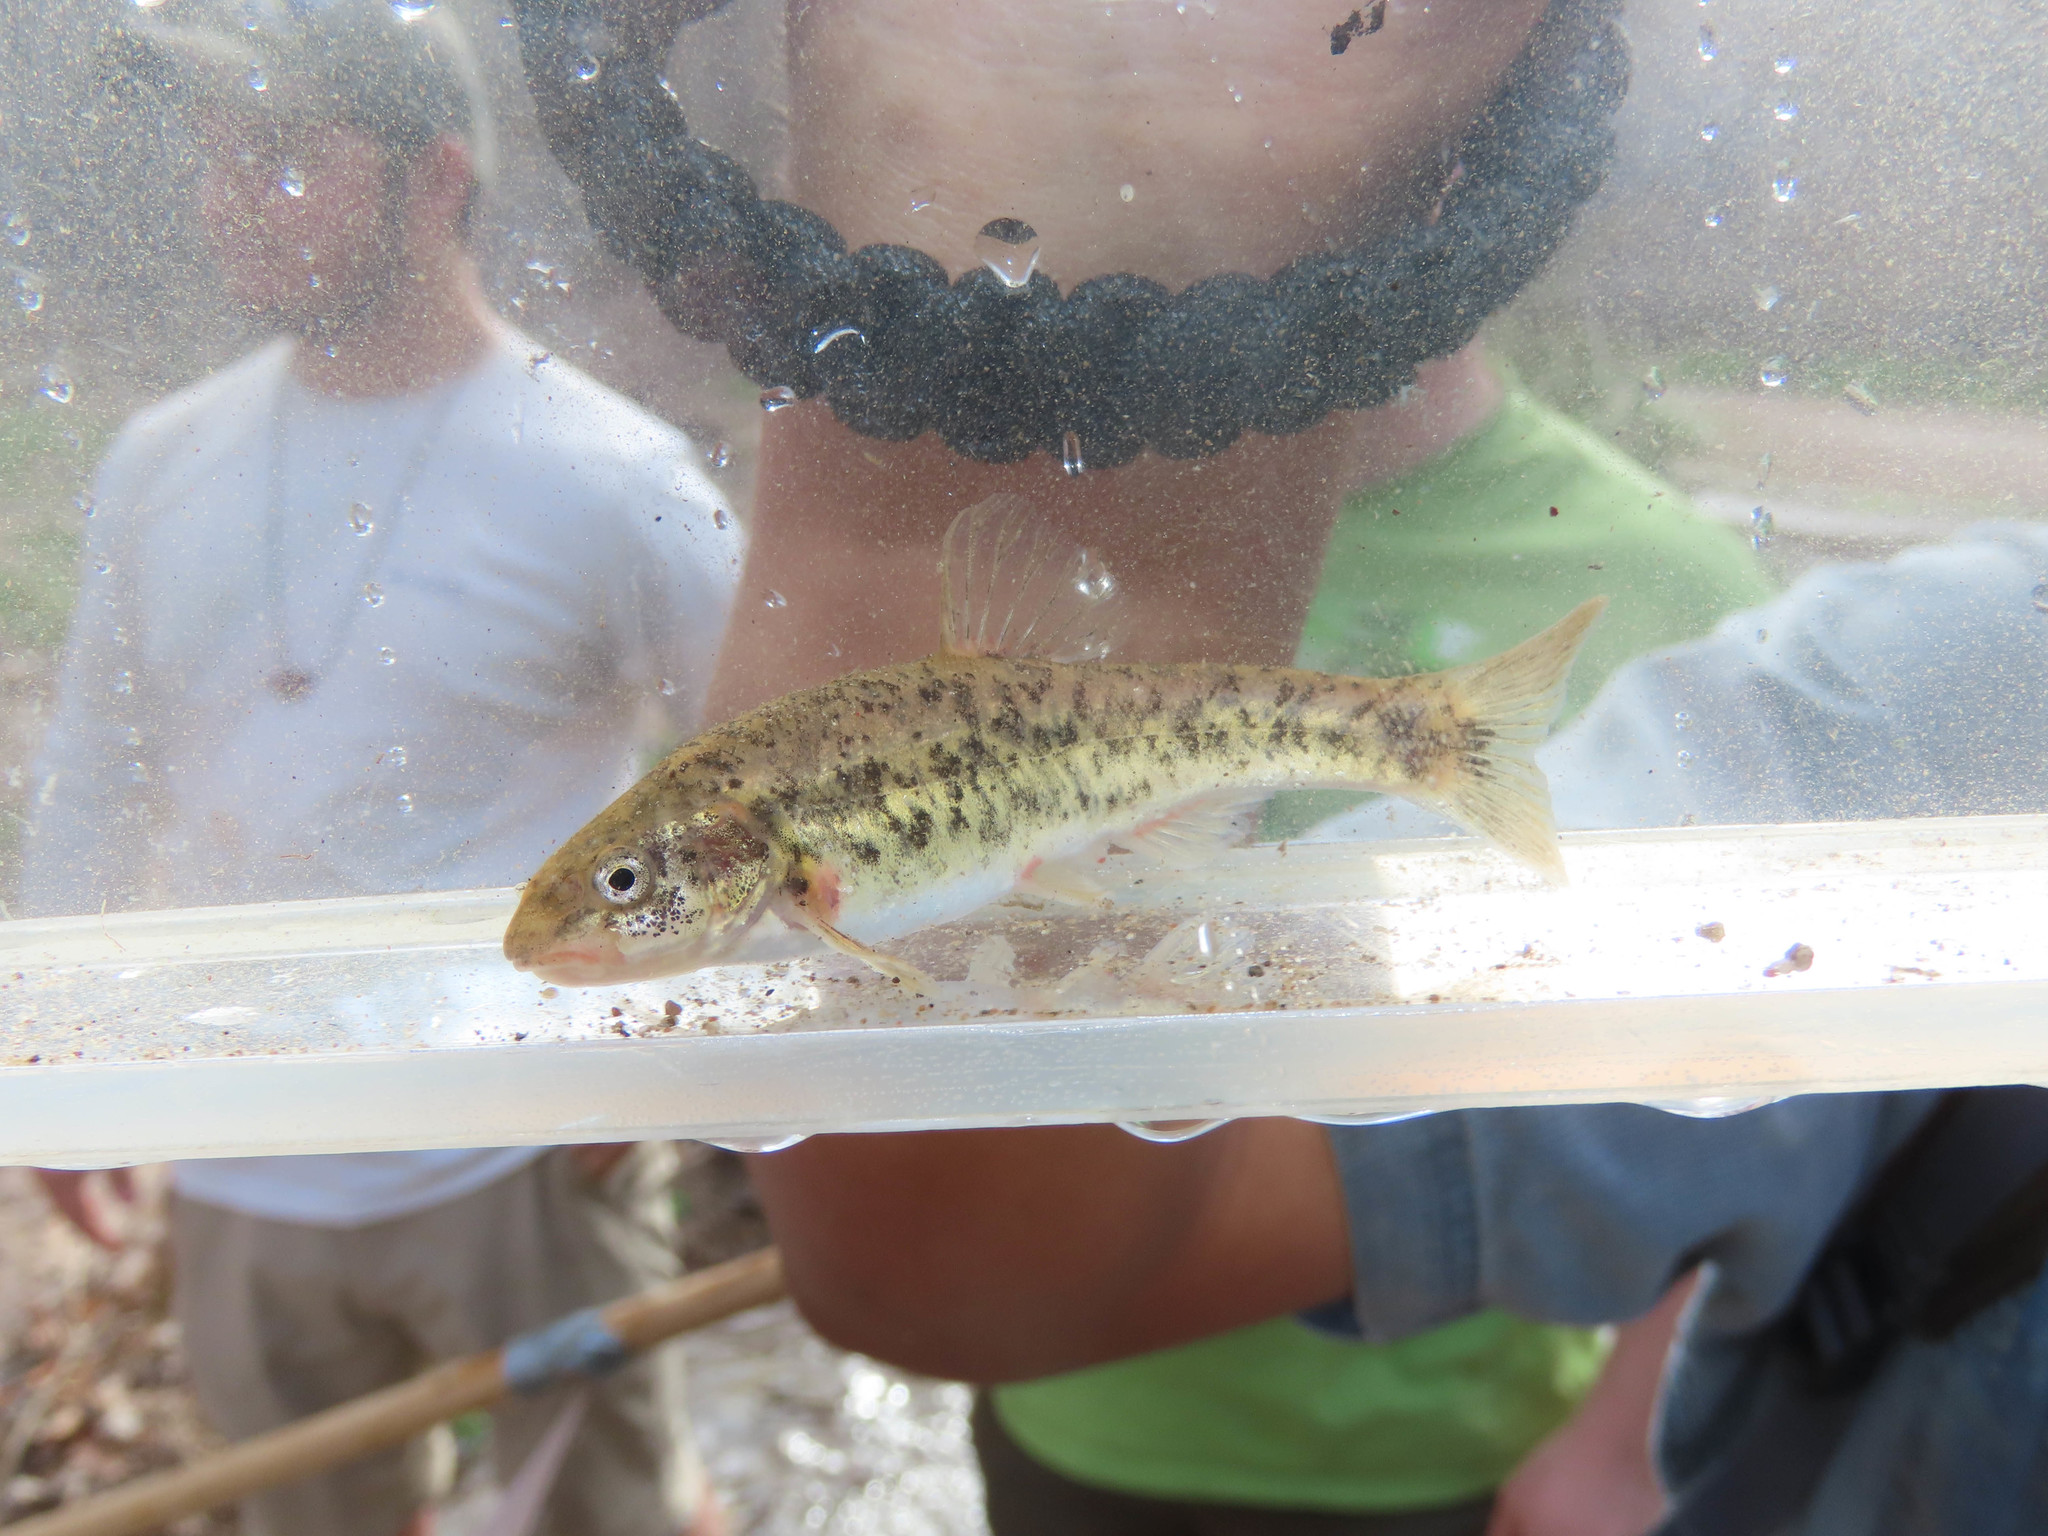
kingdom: Animalia
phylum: Chordata
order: Cypriniformes
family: Cyprinidae
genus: Rhinichthys
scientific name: Rhinichthys osculus
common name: Speckled dace
